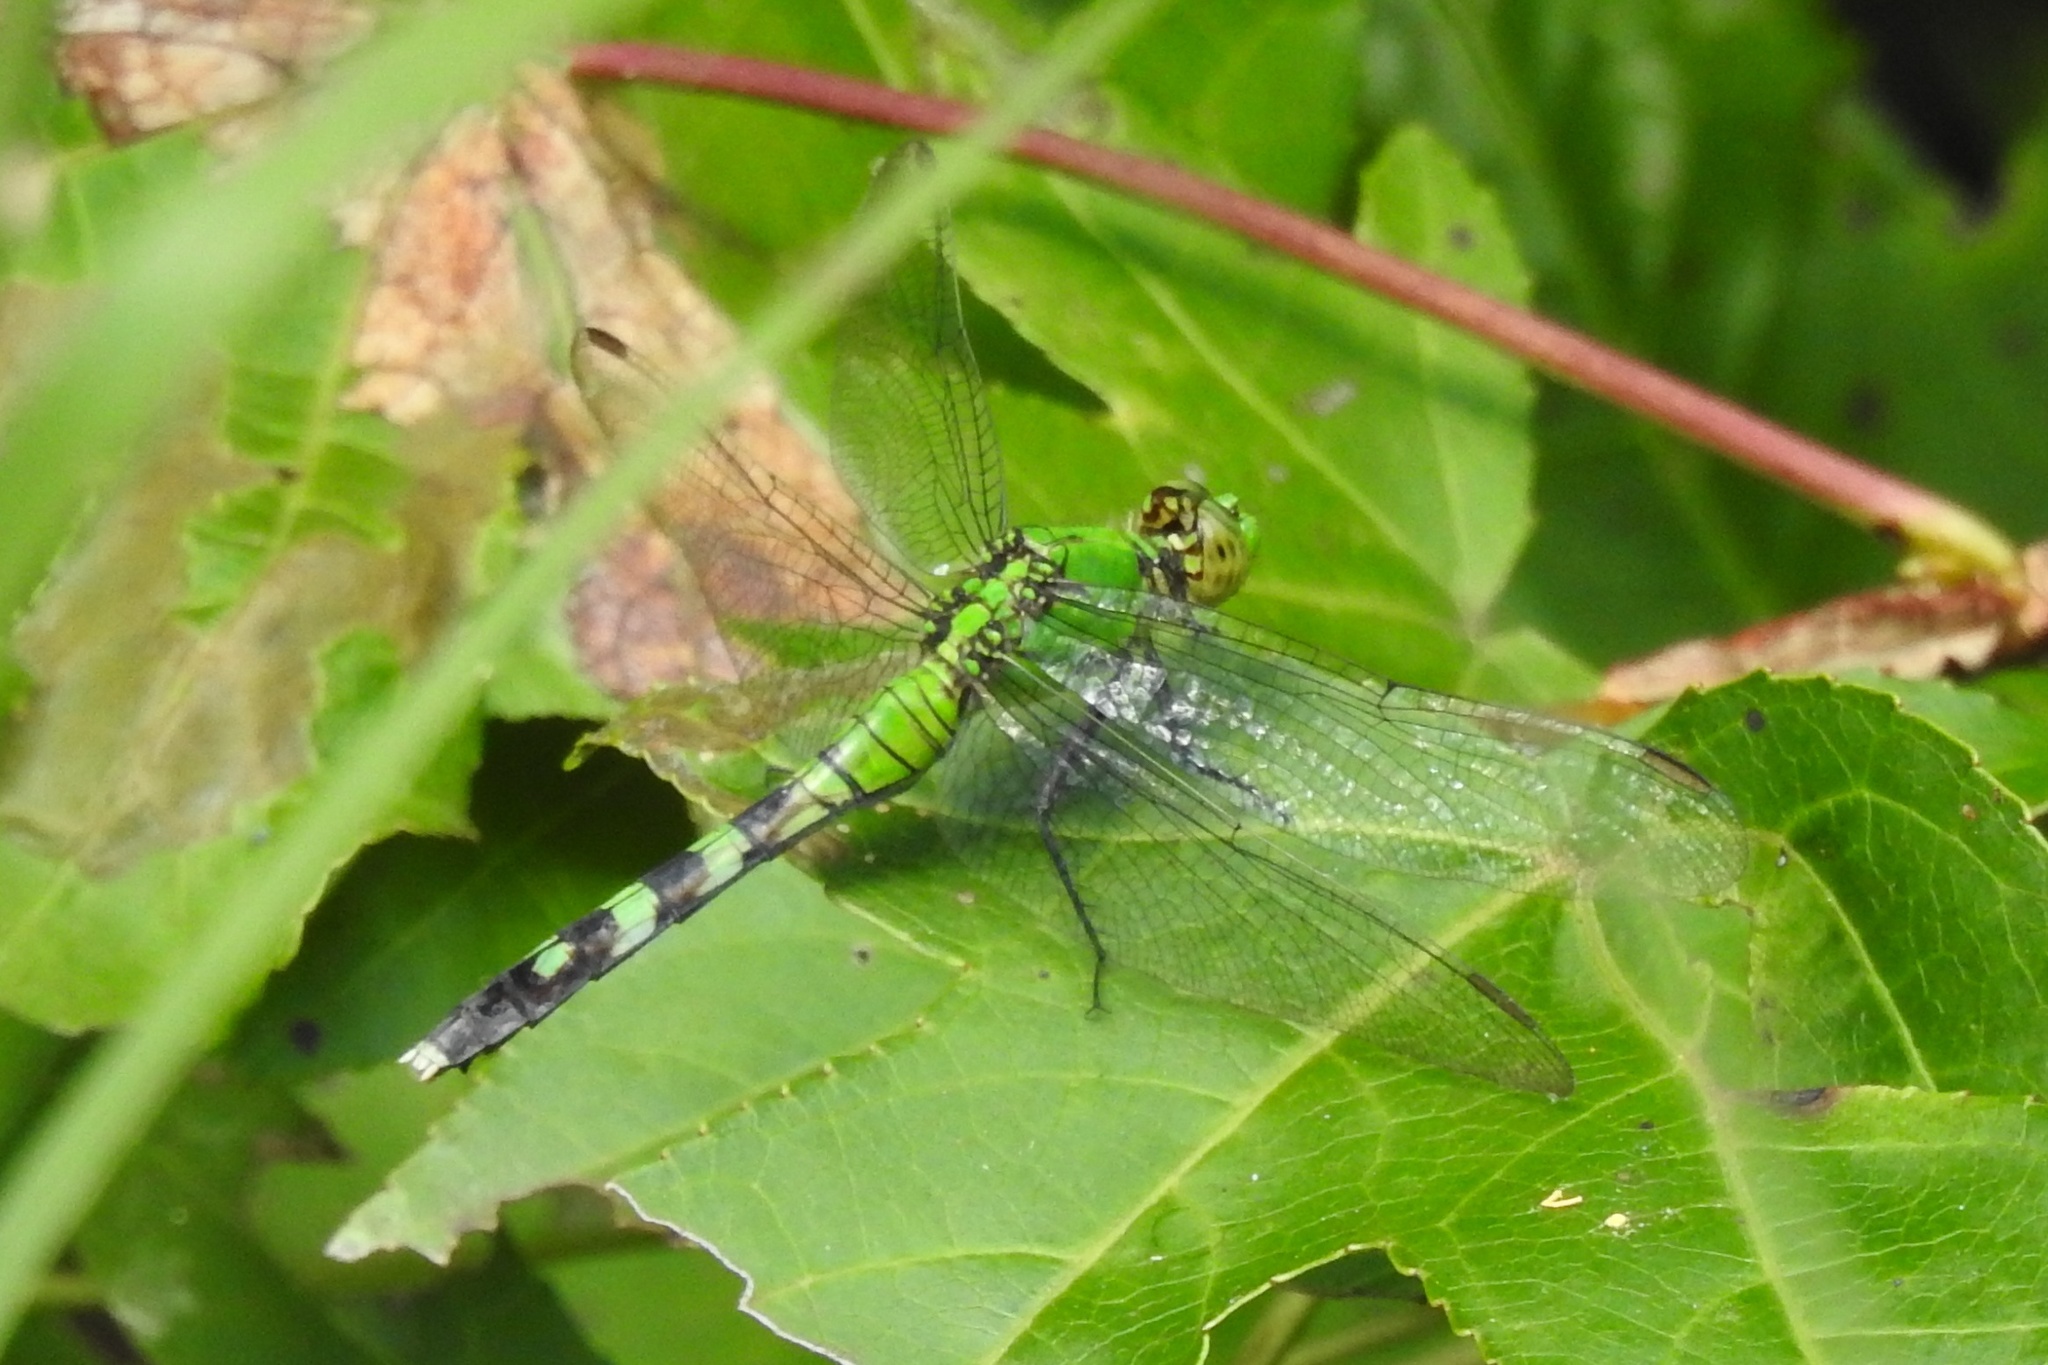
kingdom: Animalia
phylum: Arthropoda
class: Insecta
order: Odonata
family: Libellulidae
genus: Erythemis
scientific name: Erythemis simplicicollis
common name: Eastern pondhawk
